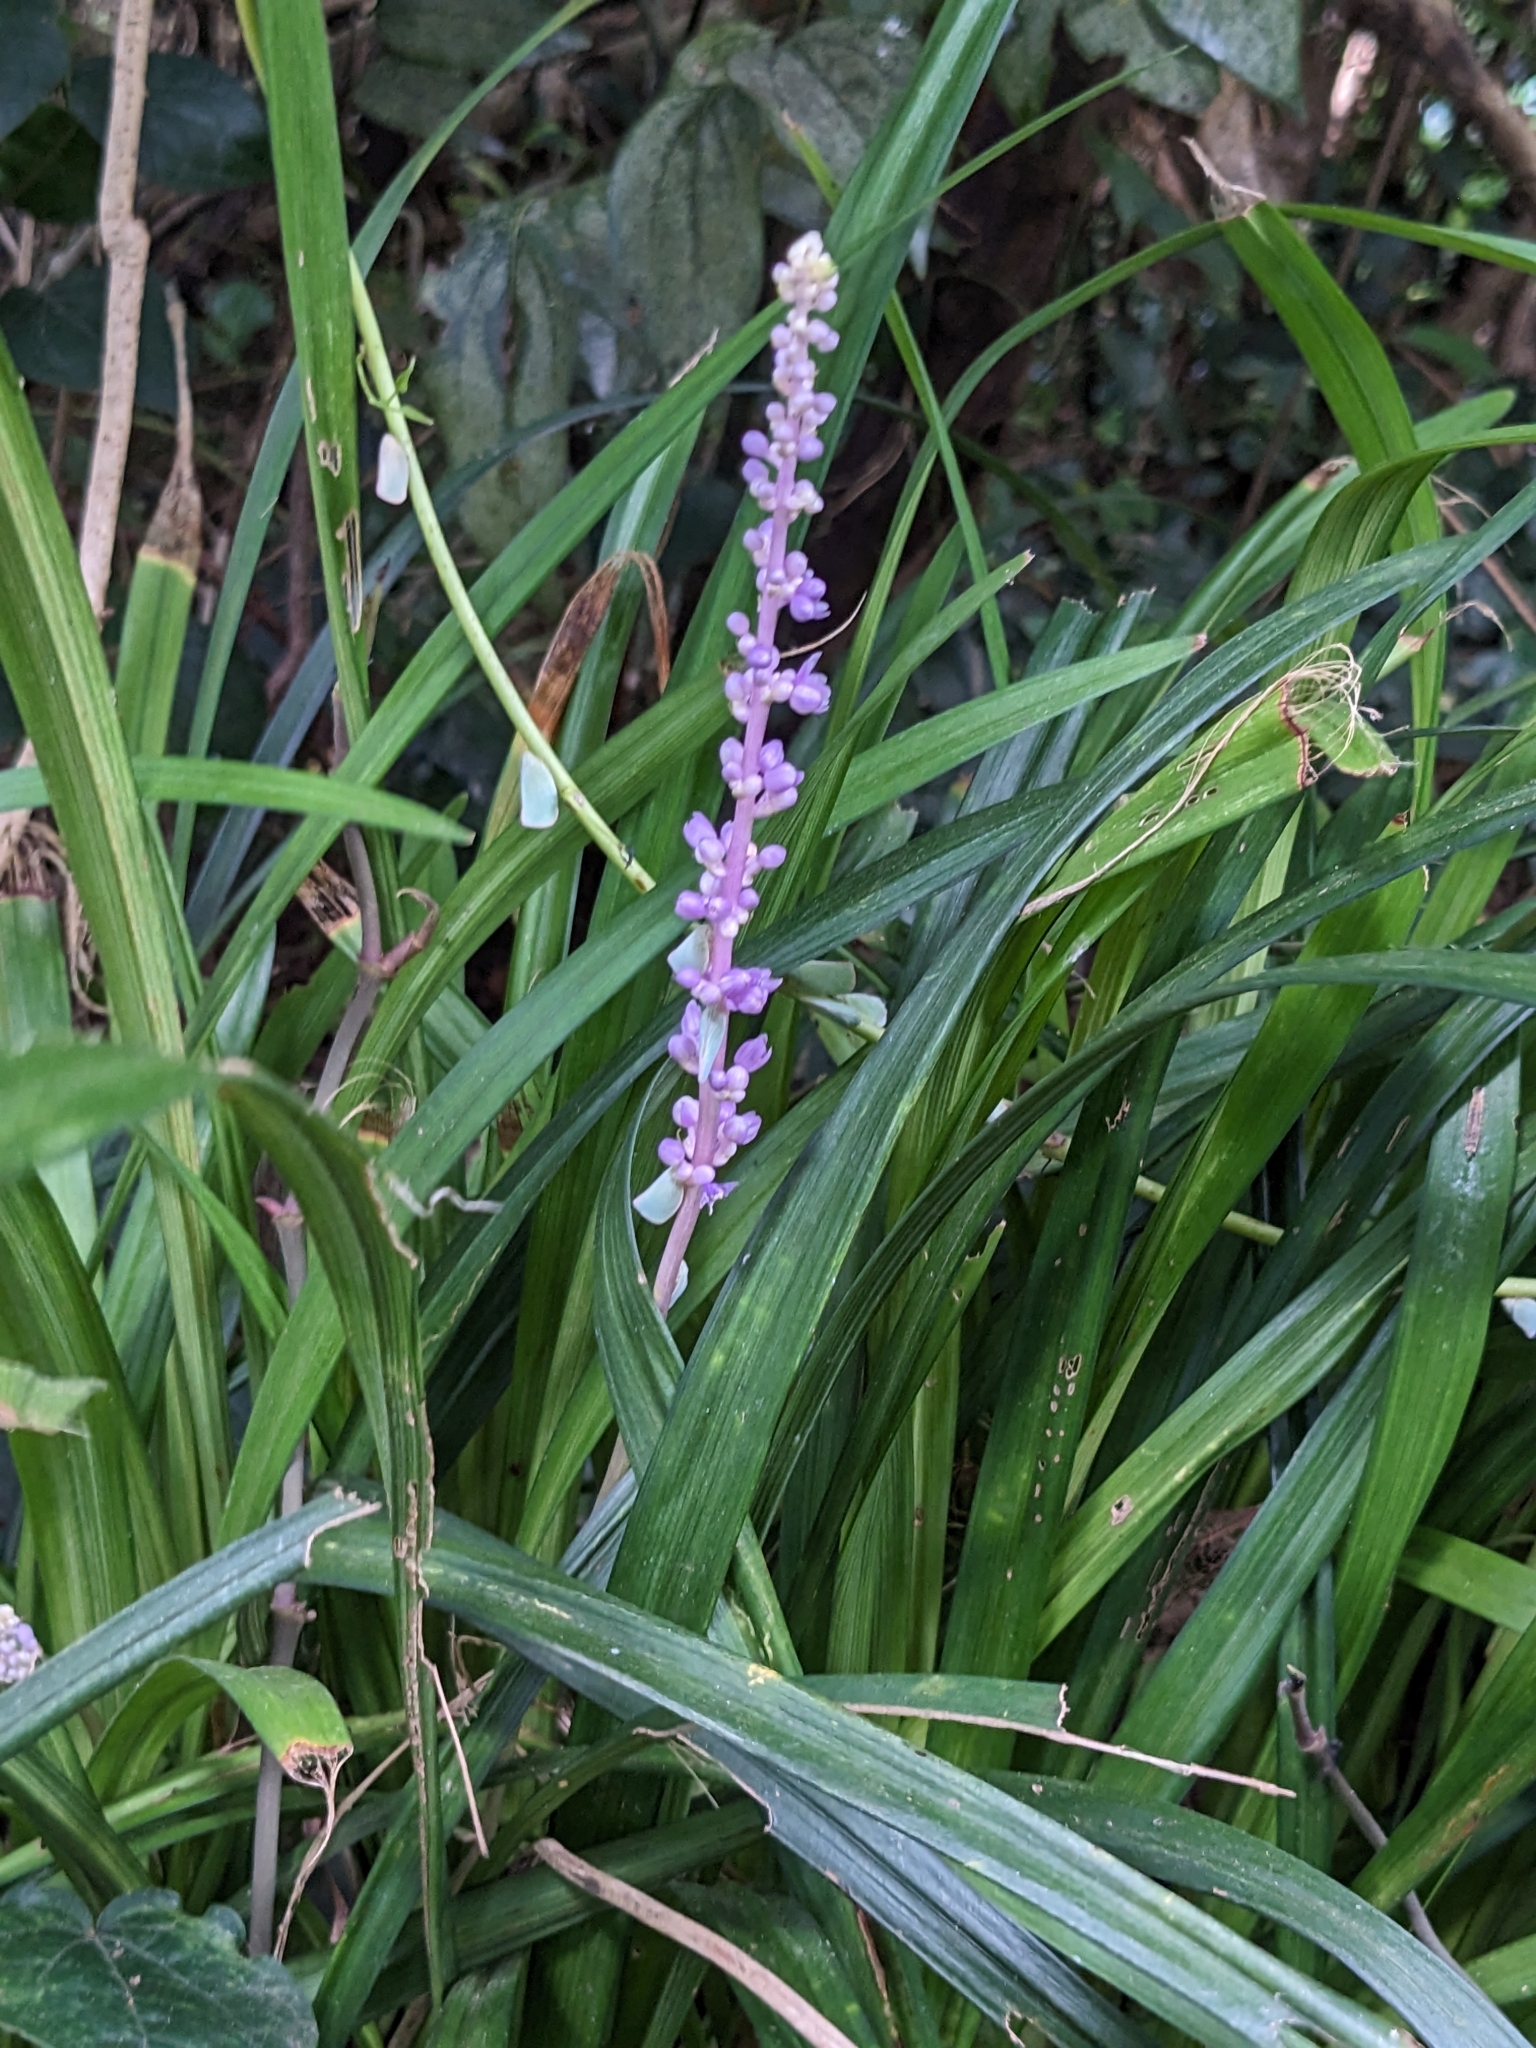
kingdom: Plantae
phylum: Tracheophyta
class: Liliopsida
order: Asparagales
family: Asparagaceae
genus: Liriope
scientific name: Liriope muscari
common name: Big blue lilyturf
